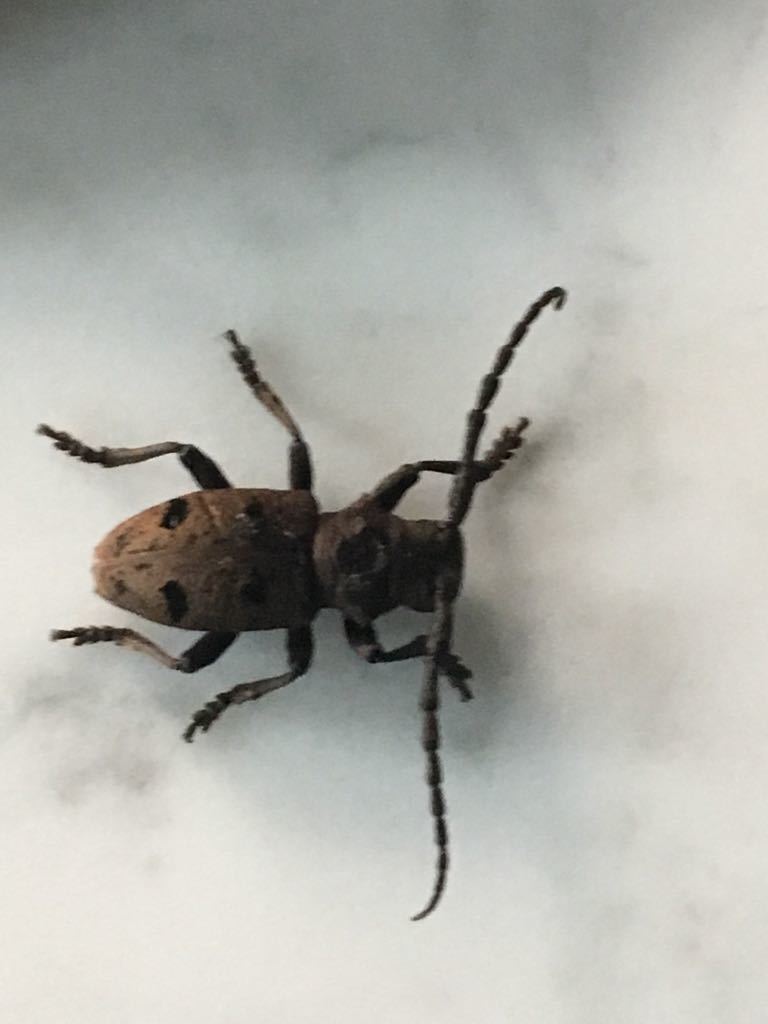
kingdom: Animalia
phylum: Arthropoda
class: Insecta
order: Coleoptera
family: Cerambycidae
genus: Herophila
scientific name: Herophila tristis
